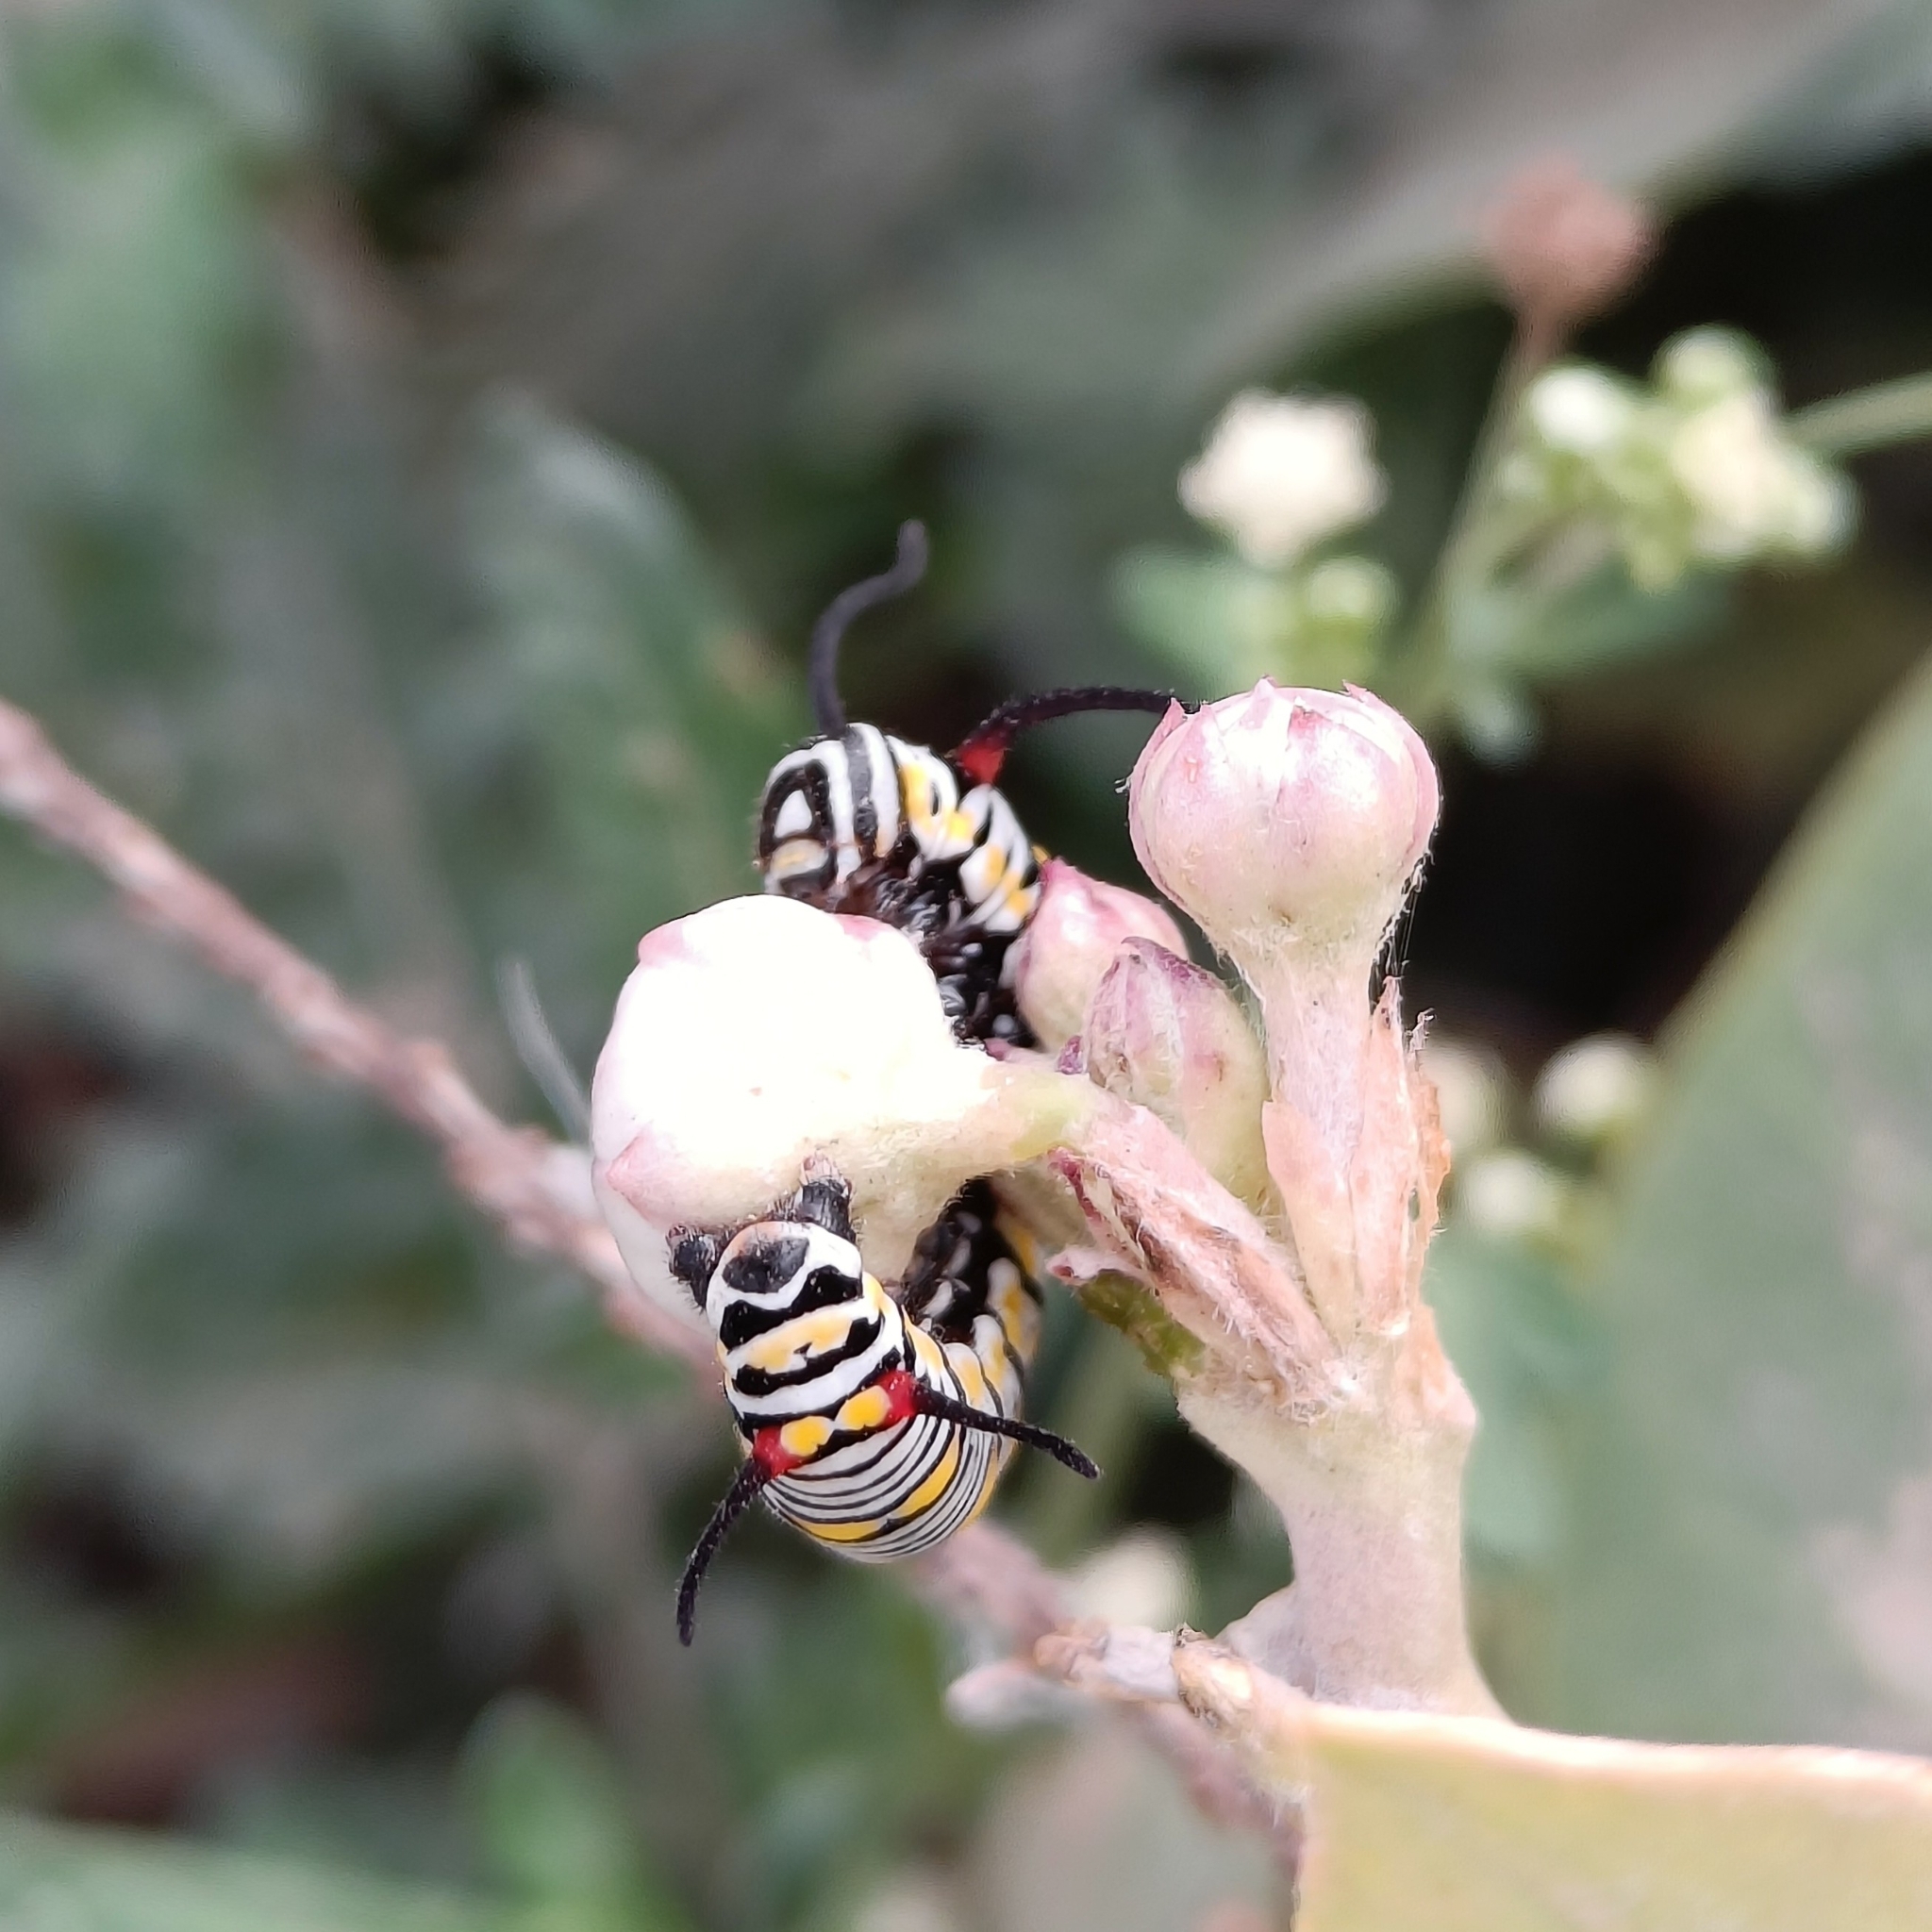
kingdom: Animalia
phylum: Arthropoda
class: Insecta
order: Lepidoptera
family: Nymphalidae
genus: Danaus
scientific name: Danaus chrysippus
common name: Plain tiger
